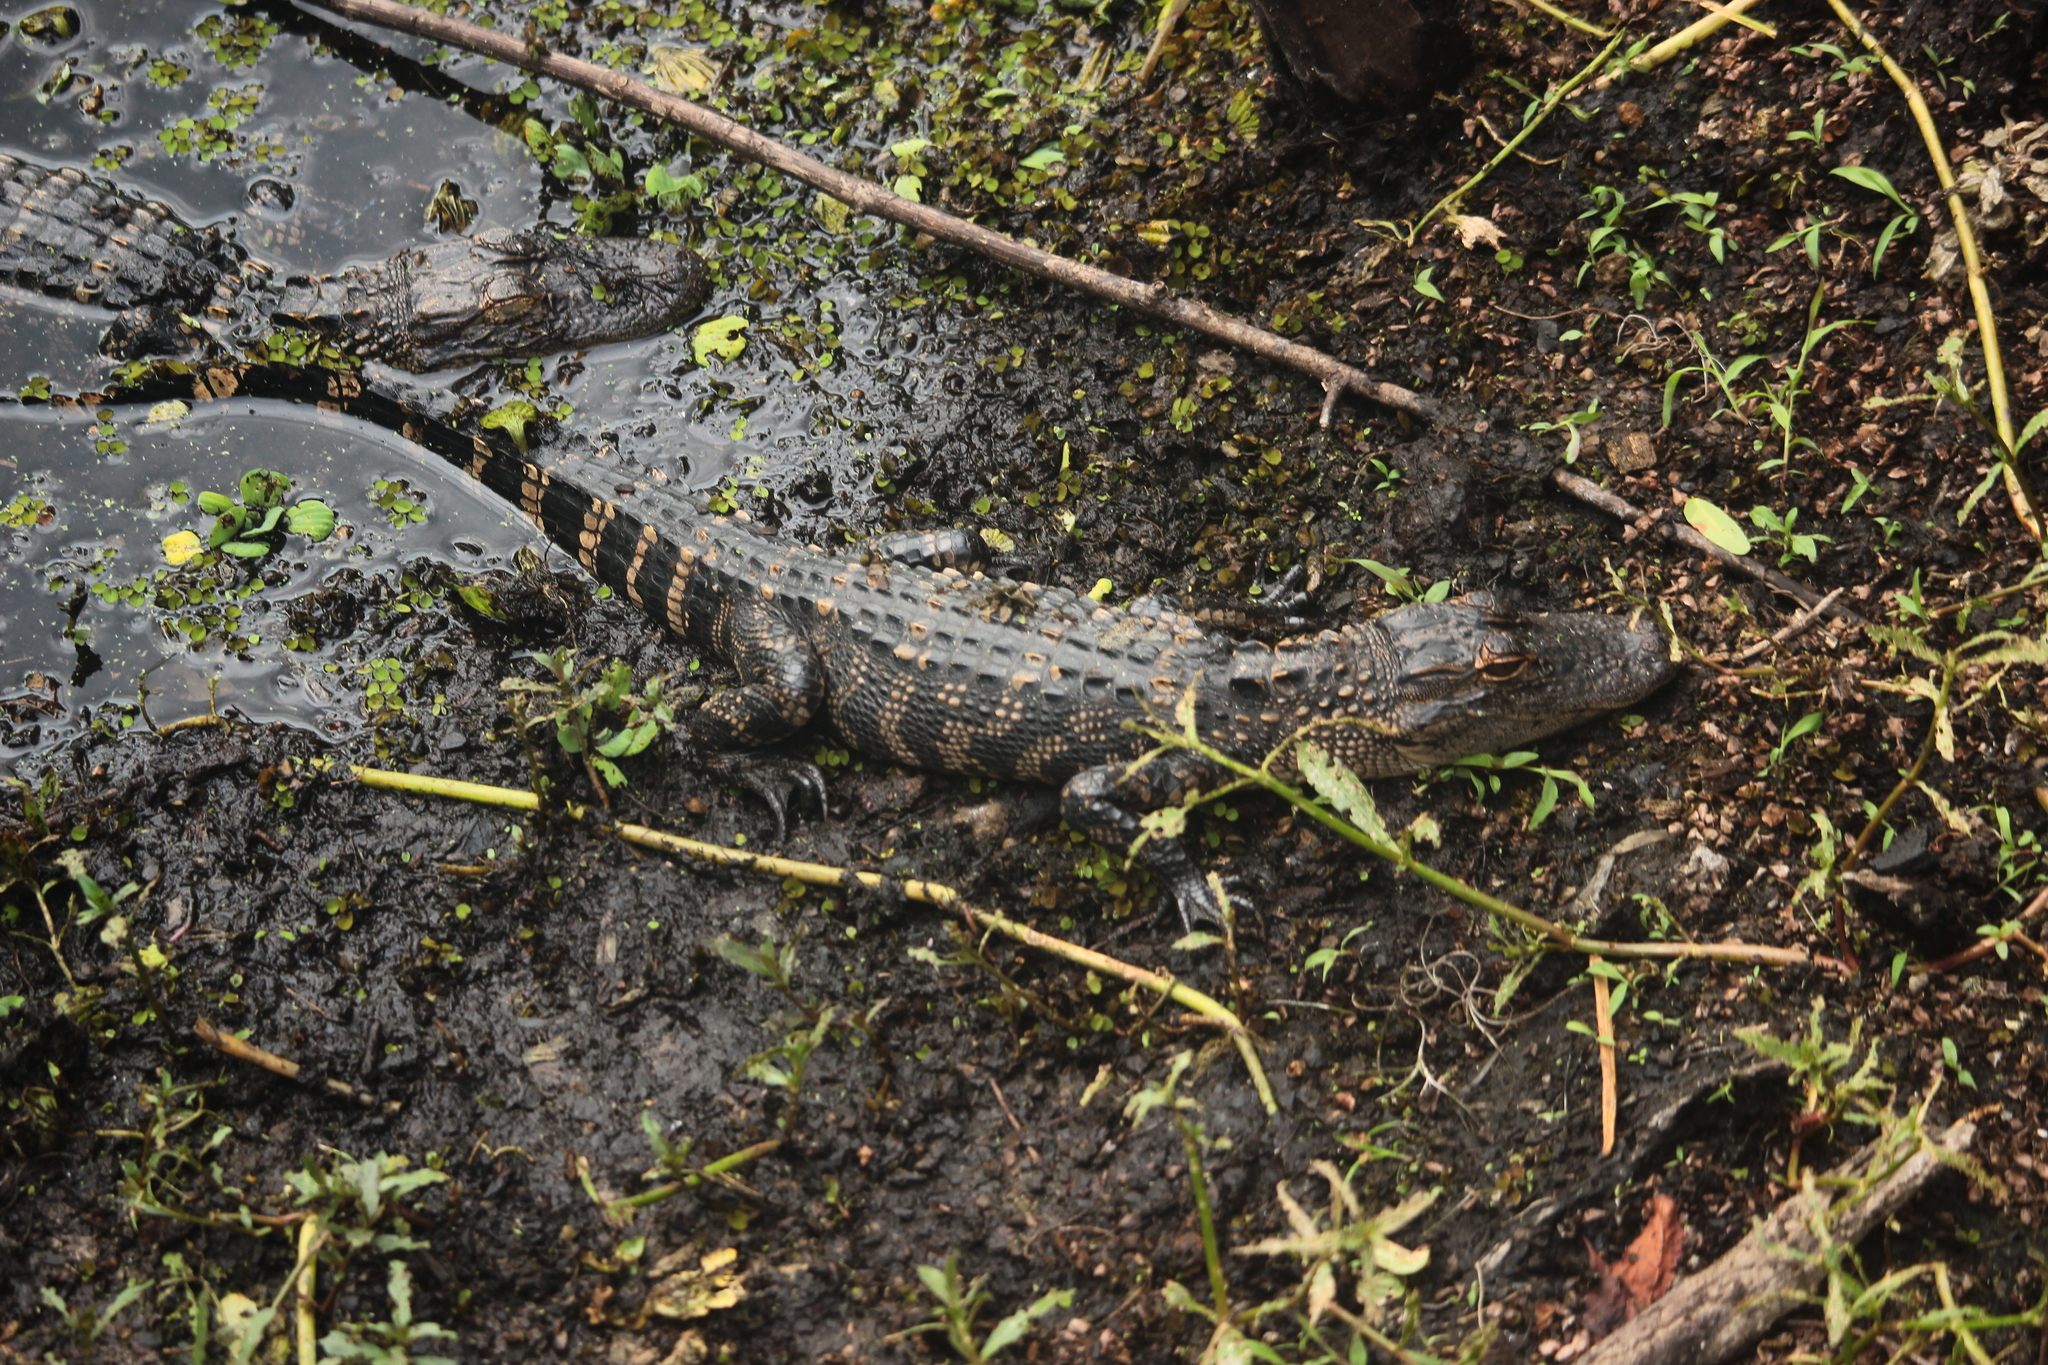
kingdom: Animalia
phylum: Chordata
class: Crocodylia
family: Alligatoridae
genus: Alligator
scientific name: Alligator mississippiensis
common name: American alligator
